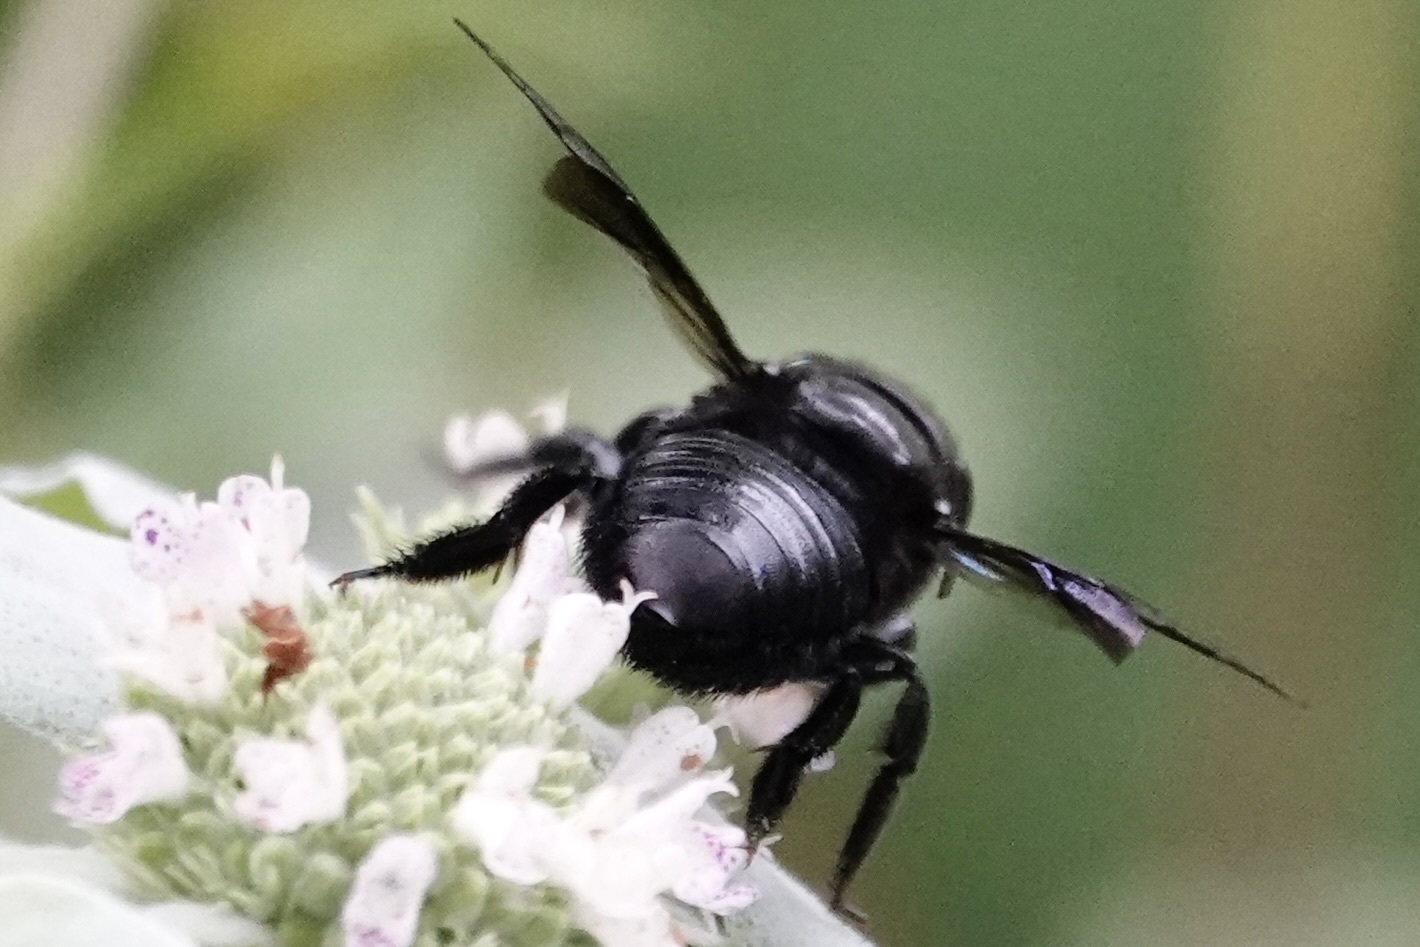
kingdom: Animalia
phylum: Arthropoda
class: Insecta
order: Hymenoptera
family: Megachilidae
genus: Megachile
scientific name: Megachile xylocopoides
